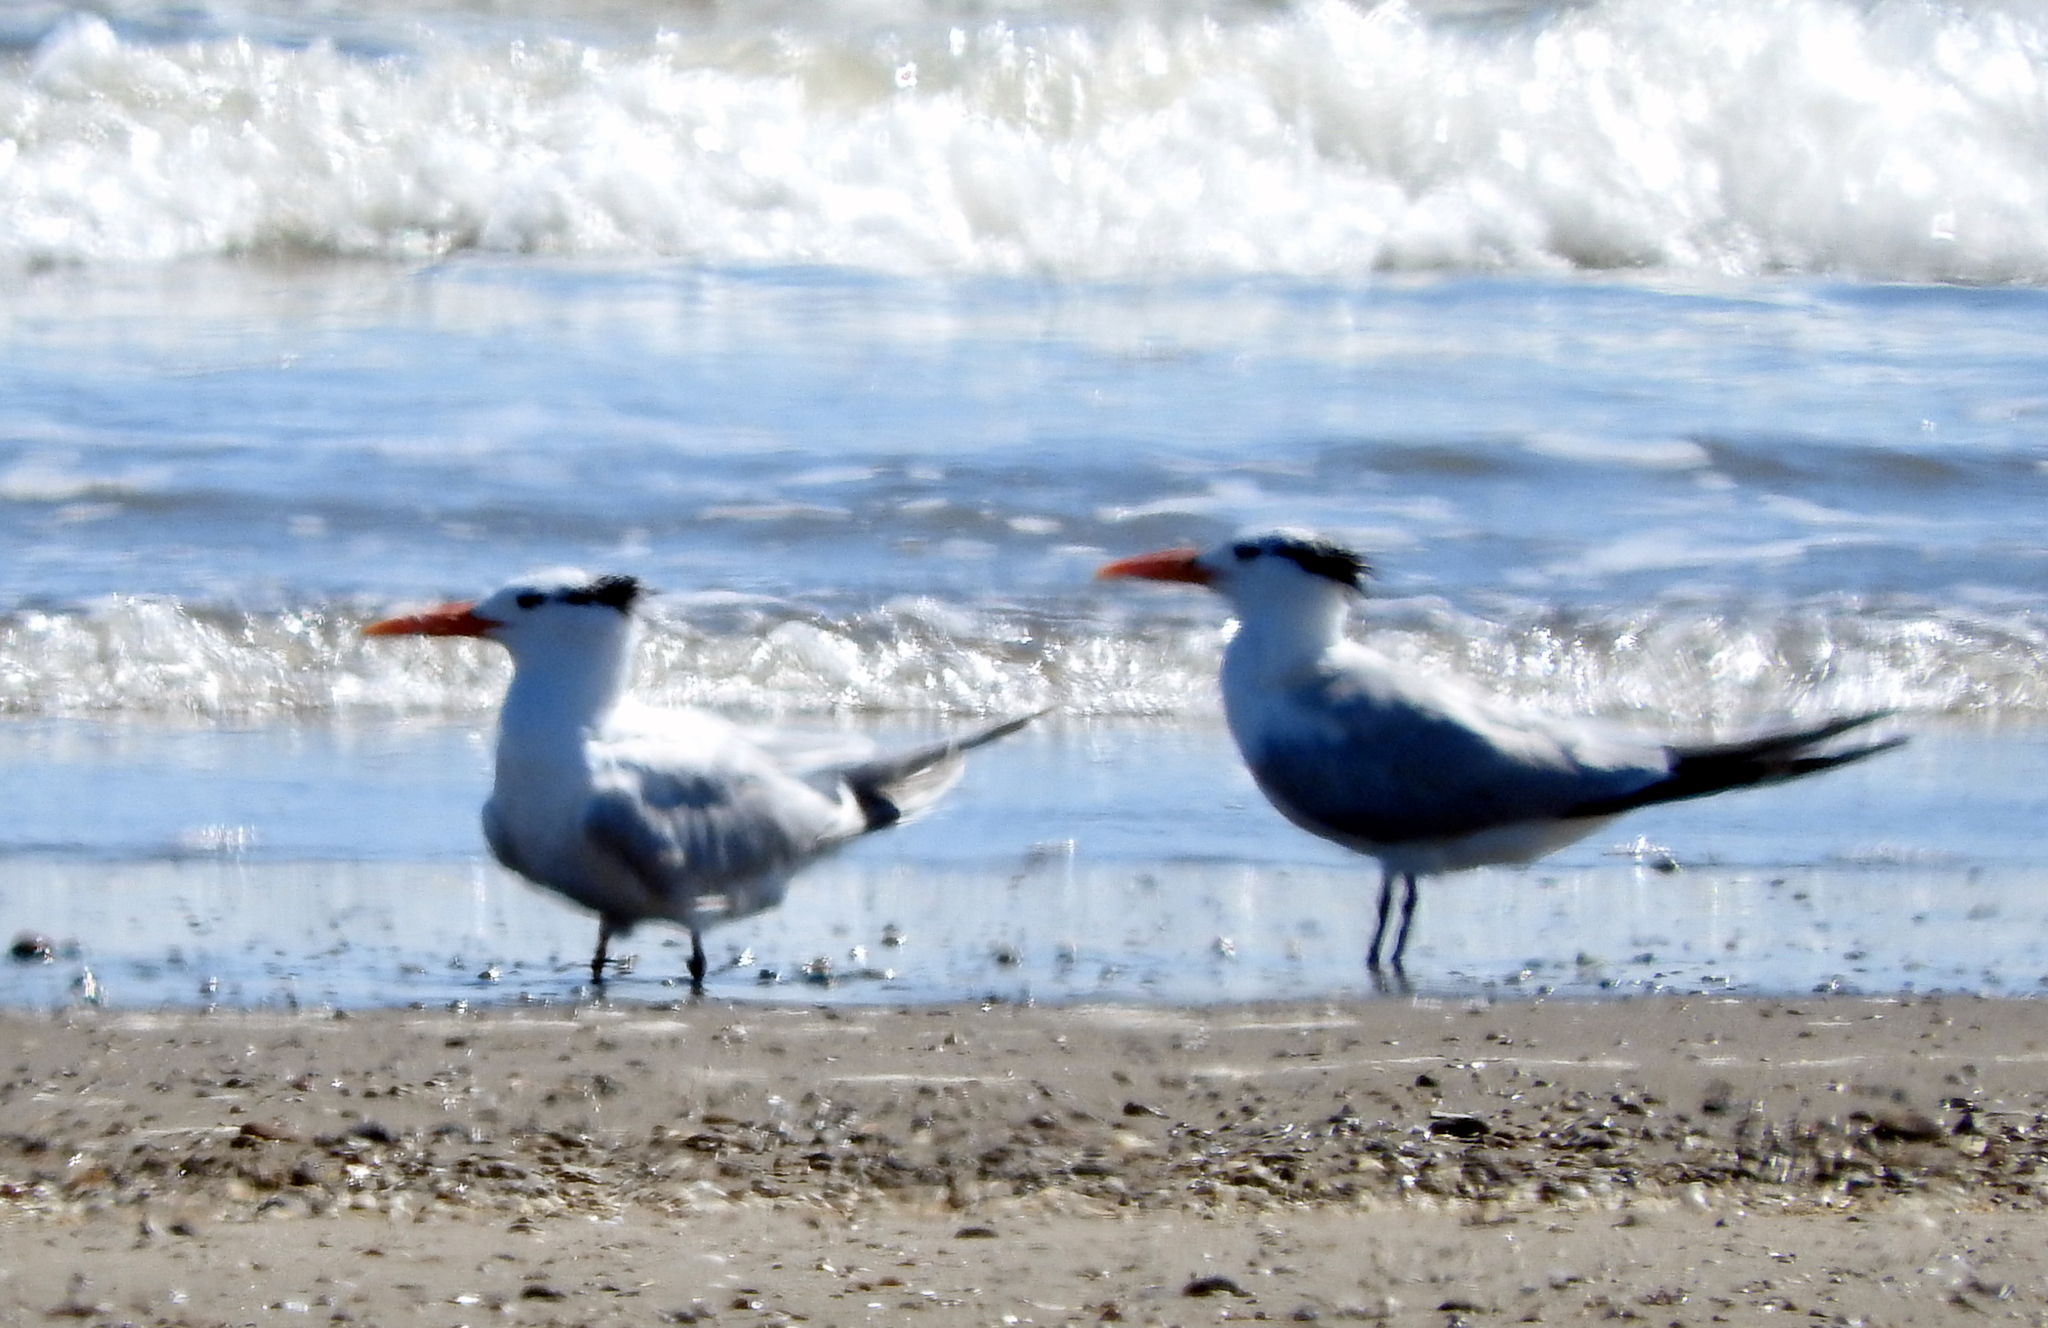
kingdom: Animalia
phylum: Chordata
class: Aves
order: Charadriiformes
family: Laridae
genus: Thalasseus
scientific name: Thalasseus maximus
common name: Royal tern
